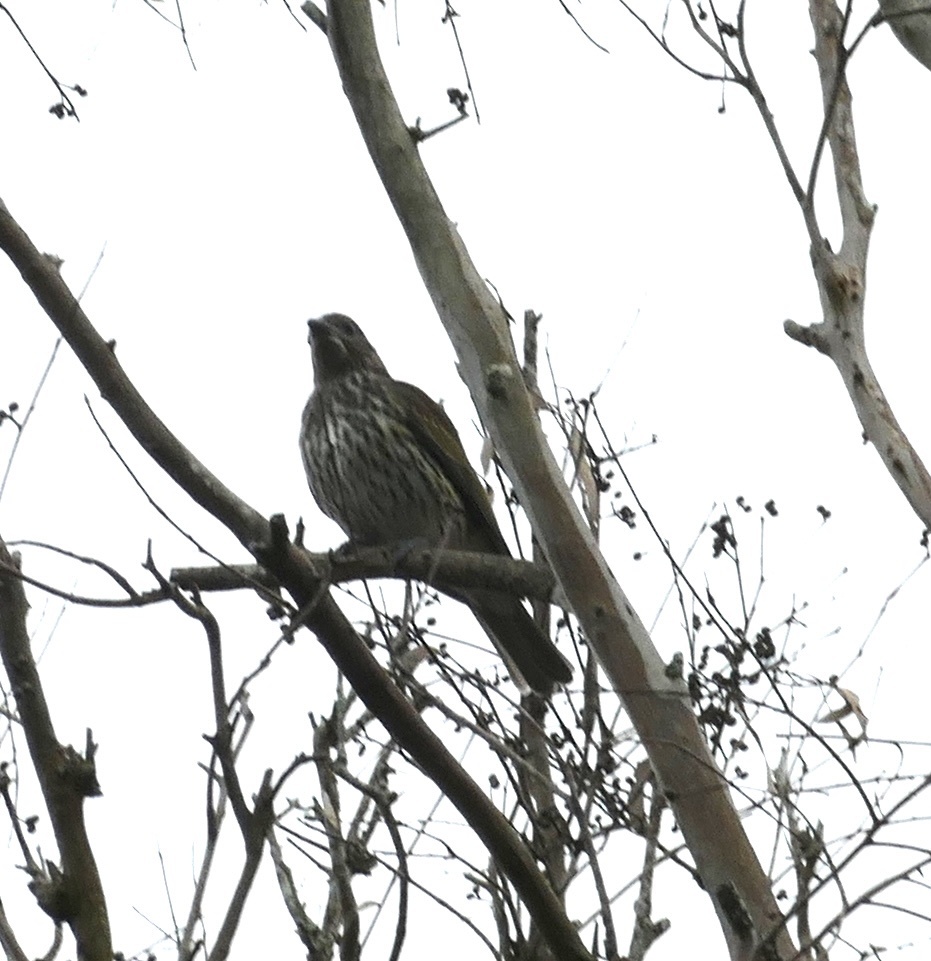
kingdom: Animalia
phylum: Chordata
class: Aves
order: Passeriformes
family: Oriolidae
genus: Sphecotheres
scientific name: Sphecotheres vieilloti
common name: Australasian figbird
